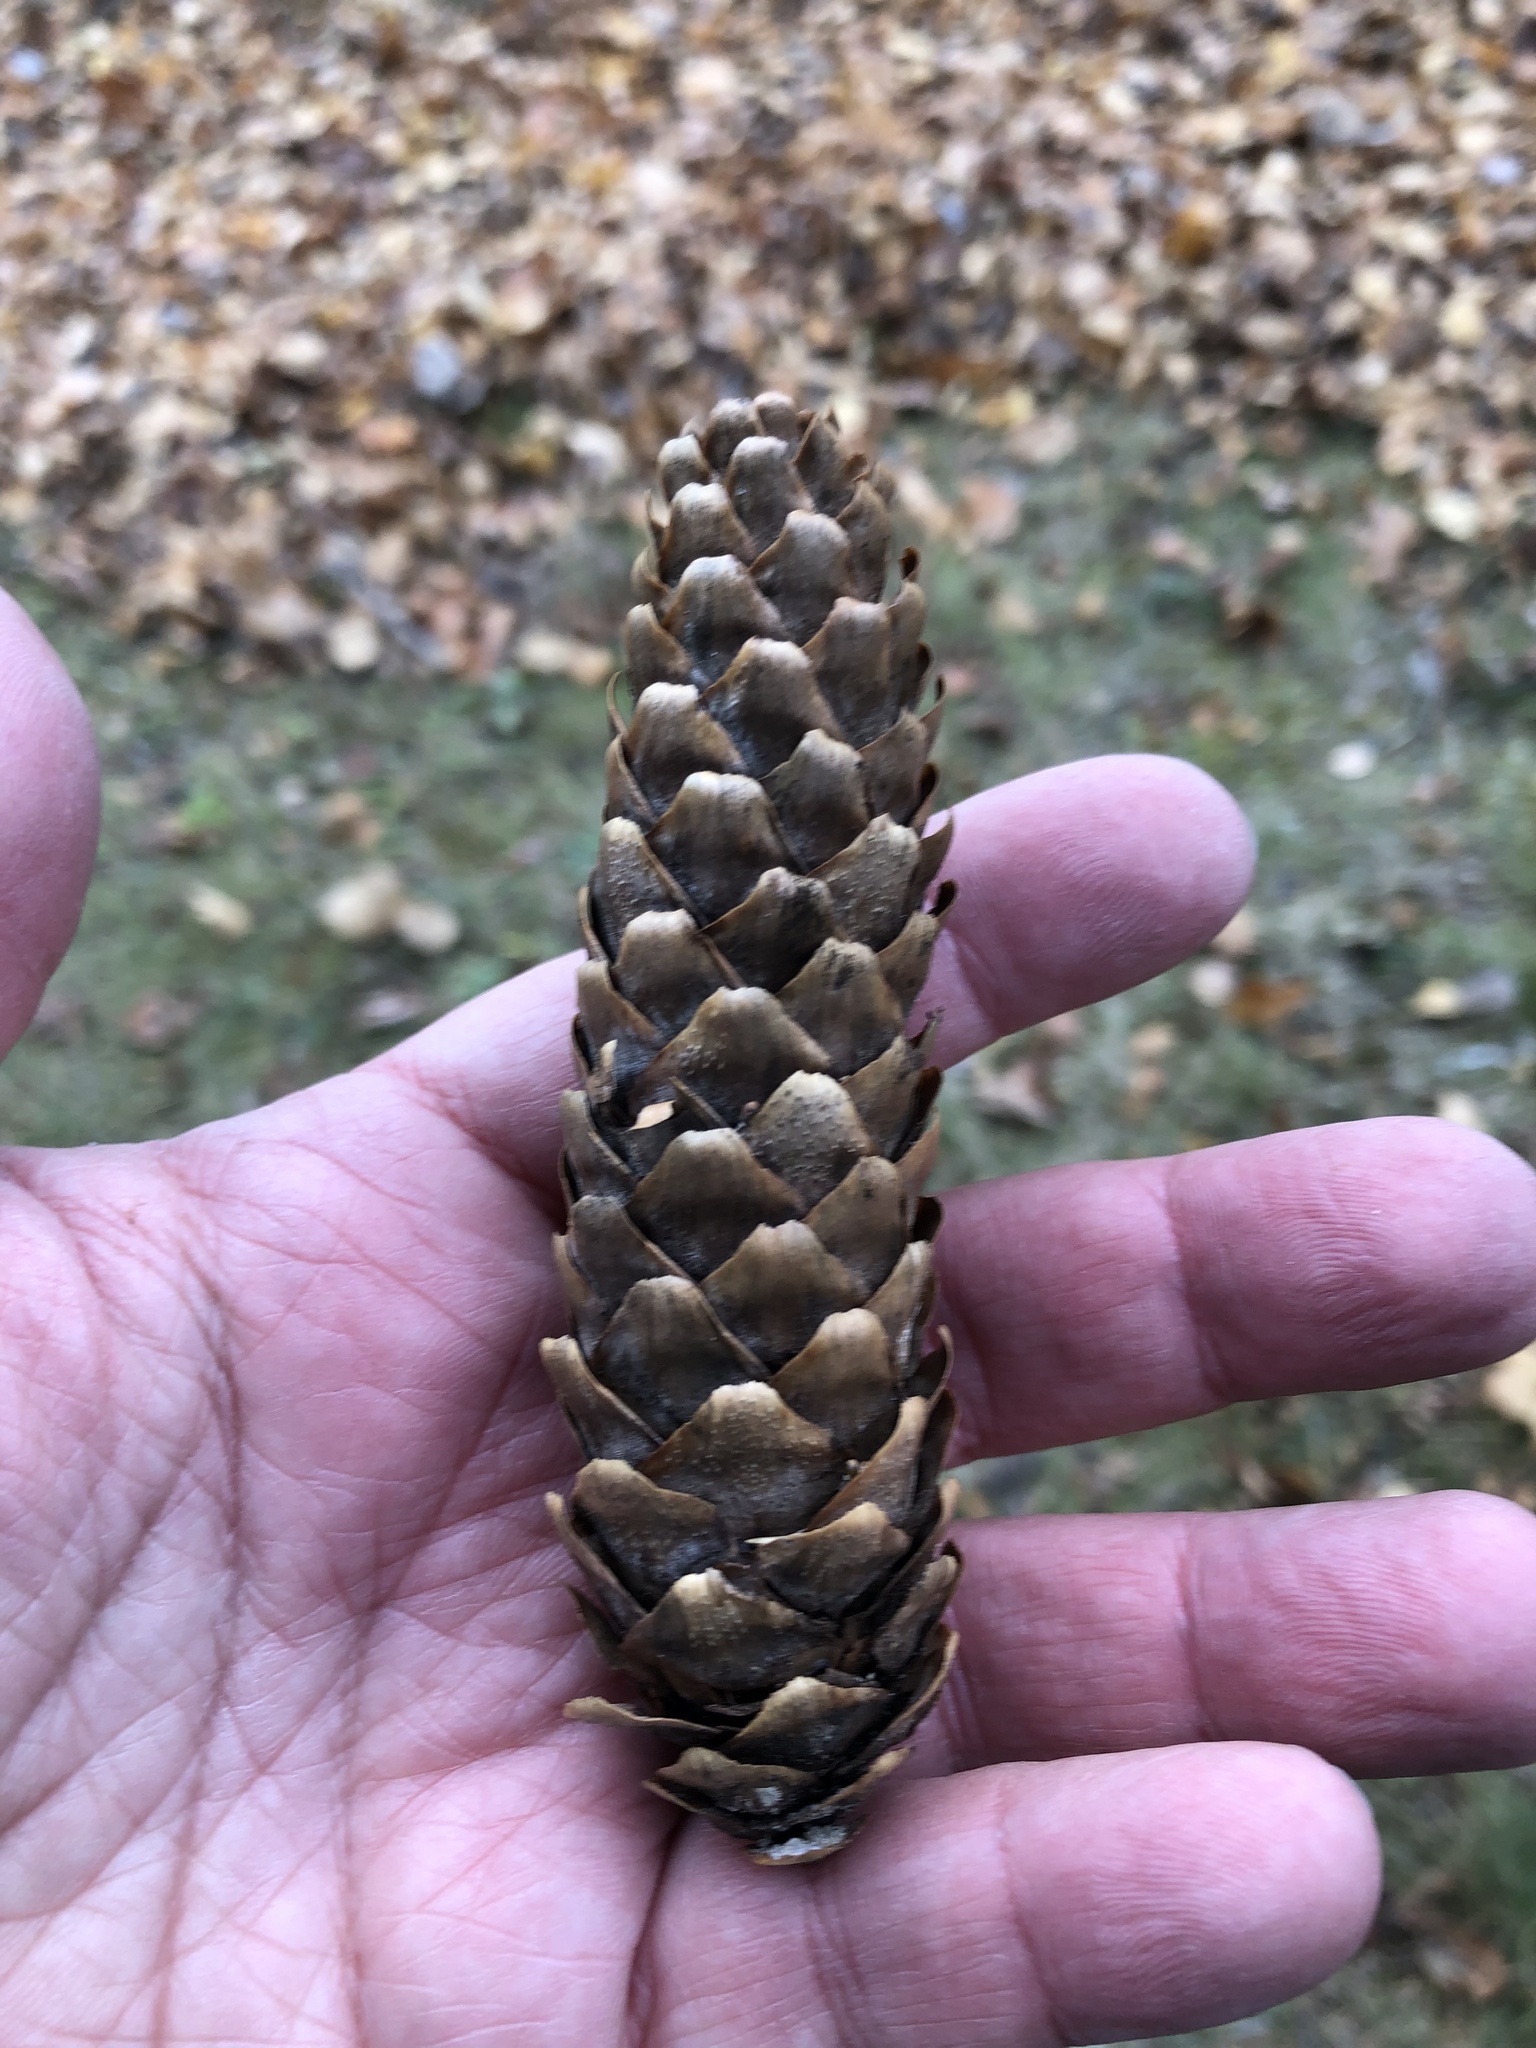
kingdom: Plantae
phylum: Tracheophyta
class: Pinopsida
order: Pinales
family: Pinaceae
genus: Picea
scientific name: Picea abies
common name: Norway spruce
